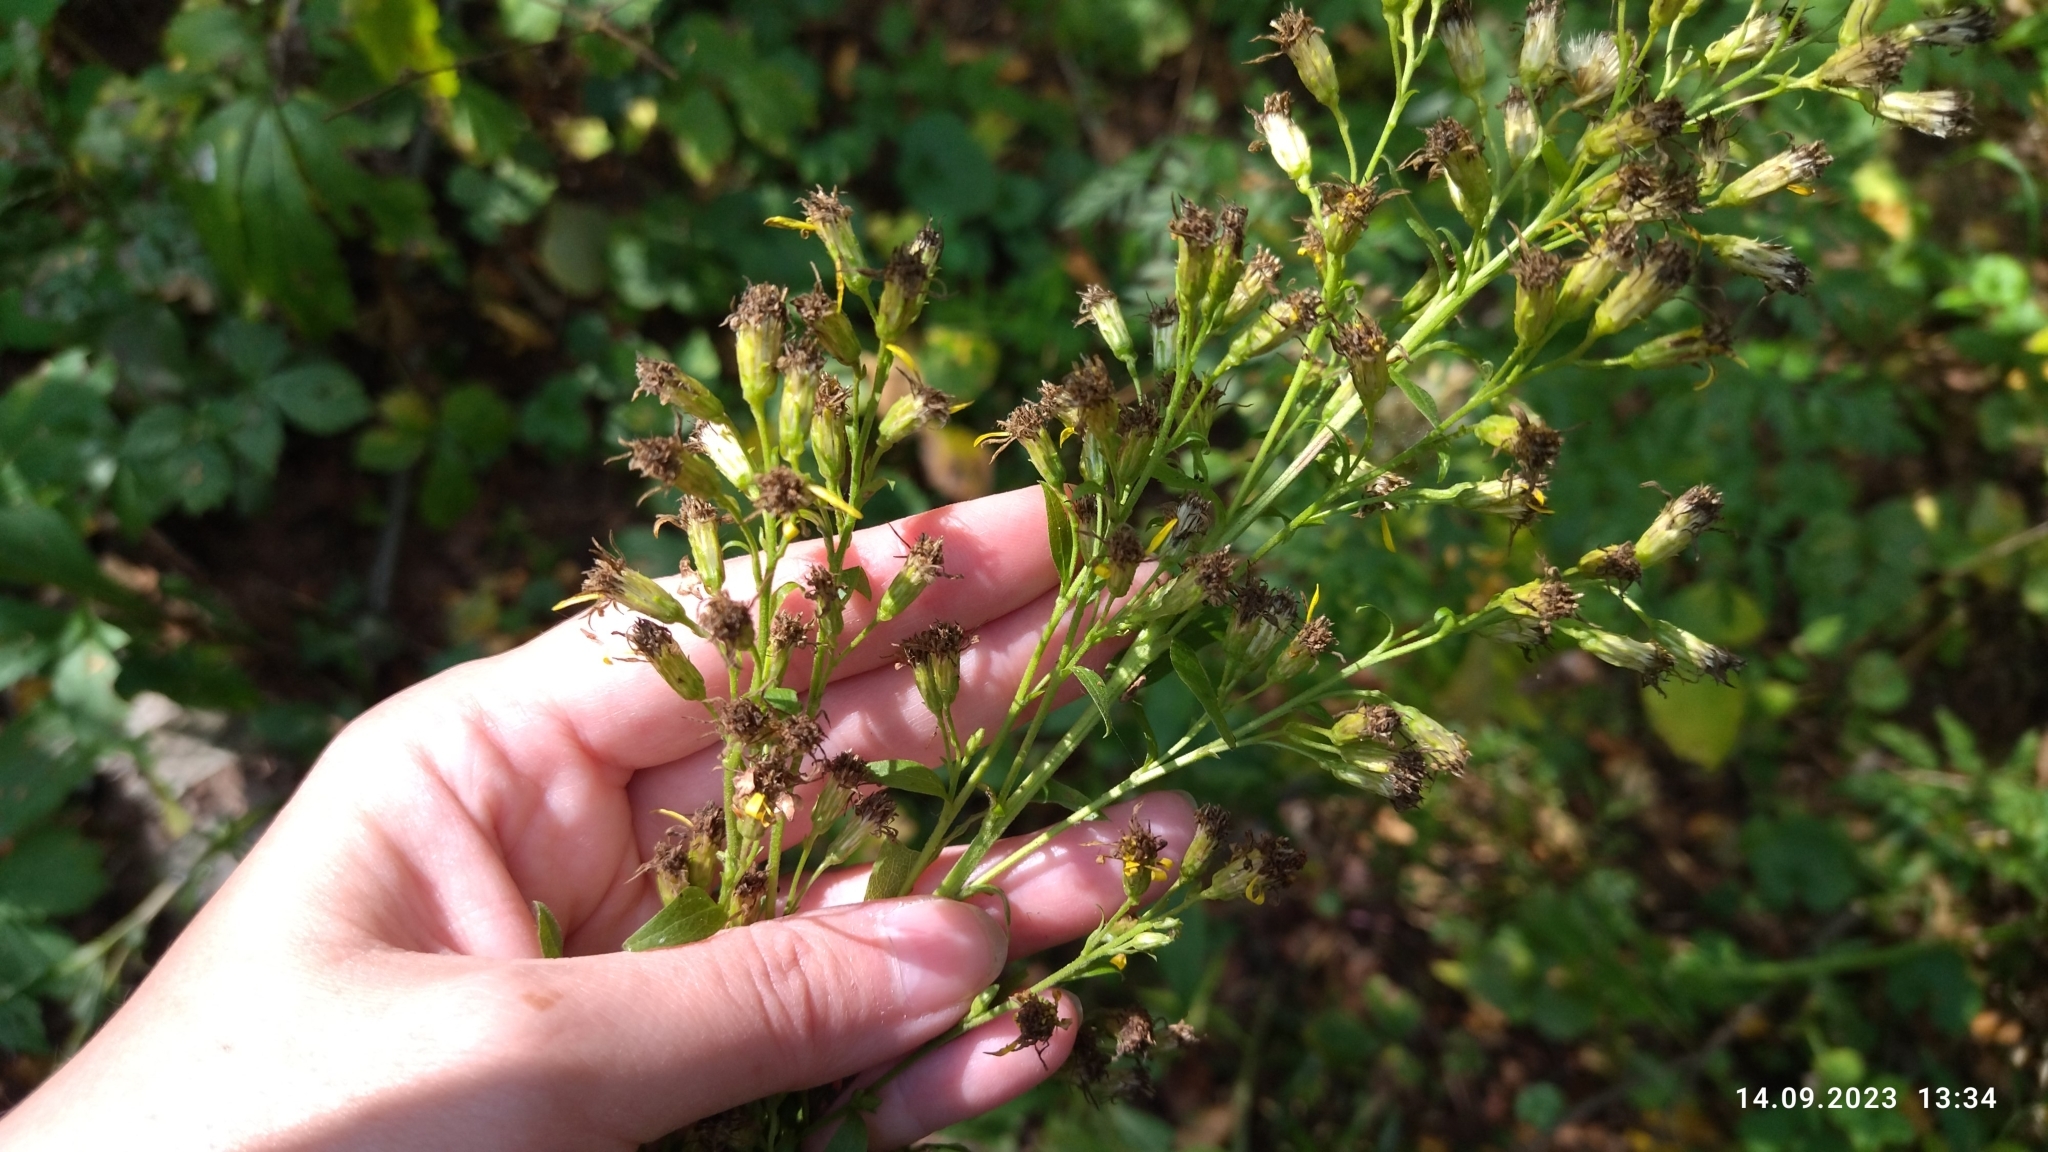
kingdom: Plantae
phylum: Tracheophyta
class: Magnoliopsida
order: Asterales
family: Asteraceae
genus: Solidago
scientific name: Solidago virgaurea
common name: Goldenrod
